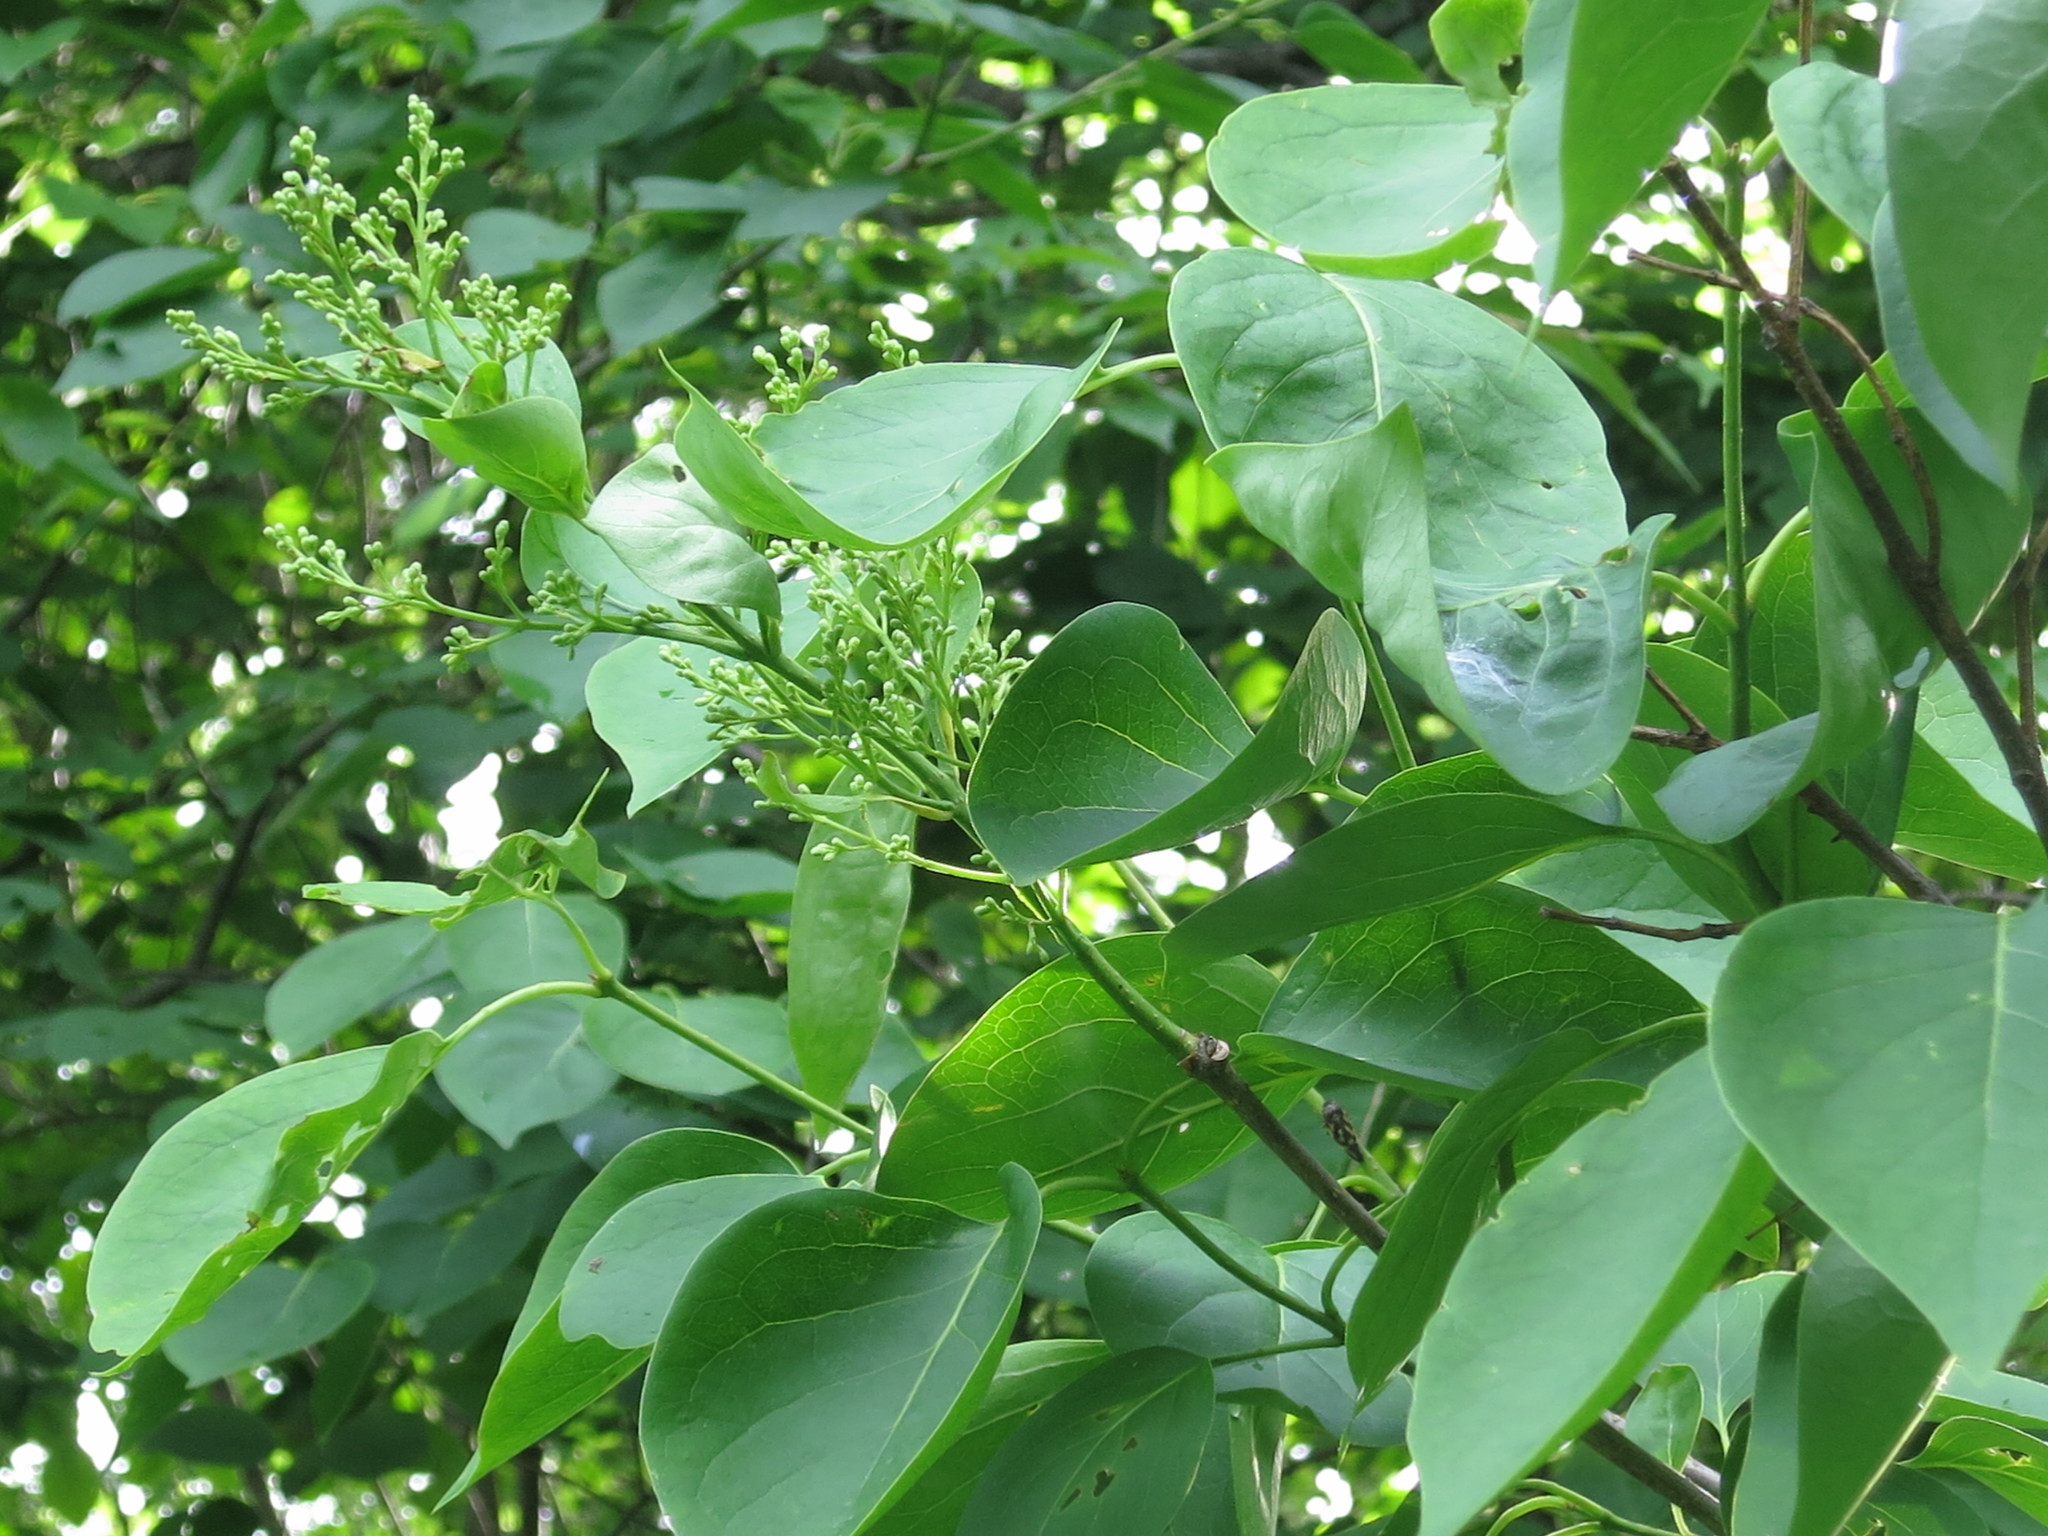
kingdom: Plantae
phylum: Tracheophyta
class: Magnoliopsida
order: Lamiales
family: Oleaceae
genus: Syringa
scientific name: Syringa reticulata
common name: Japanese tree lilac
